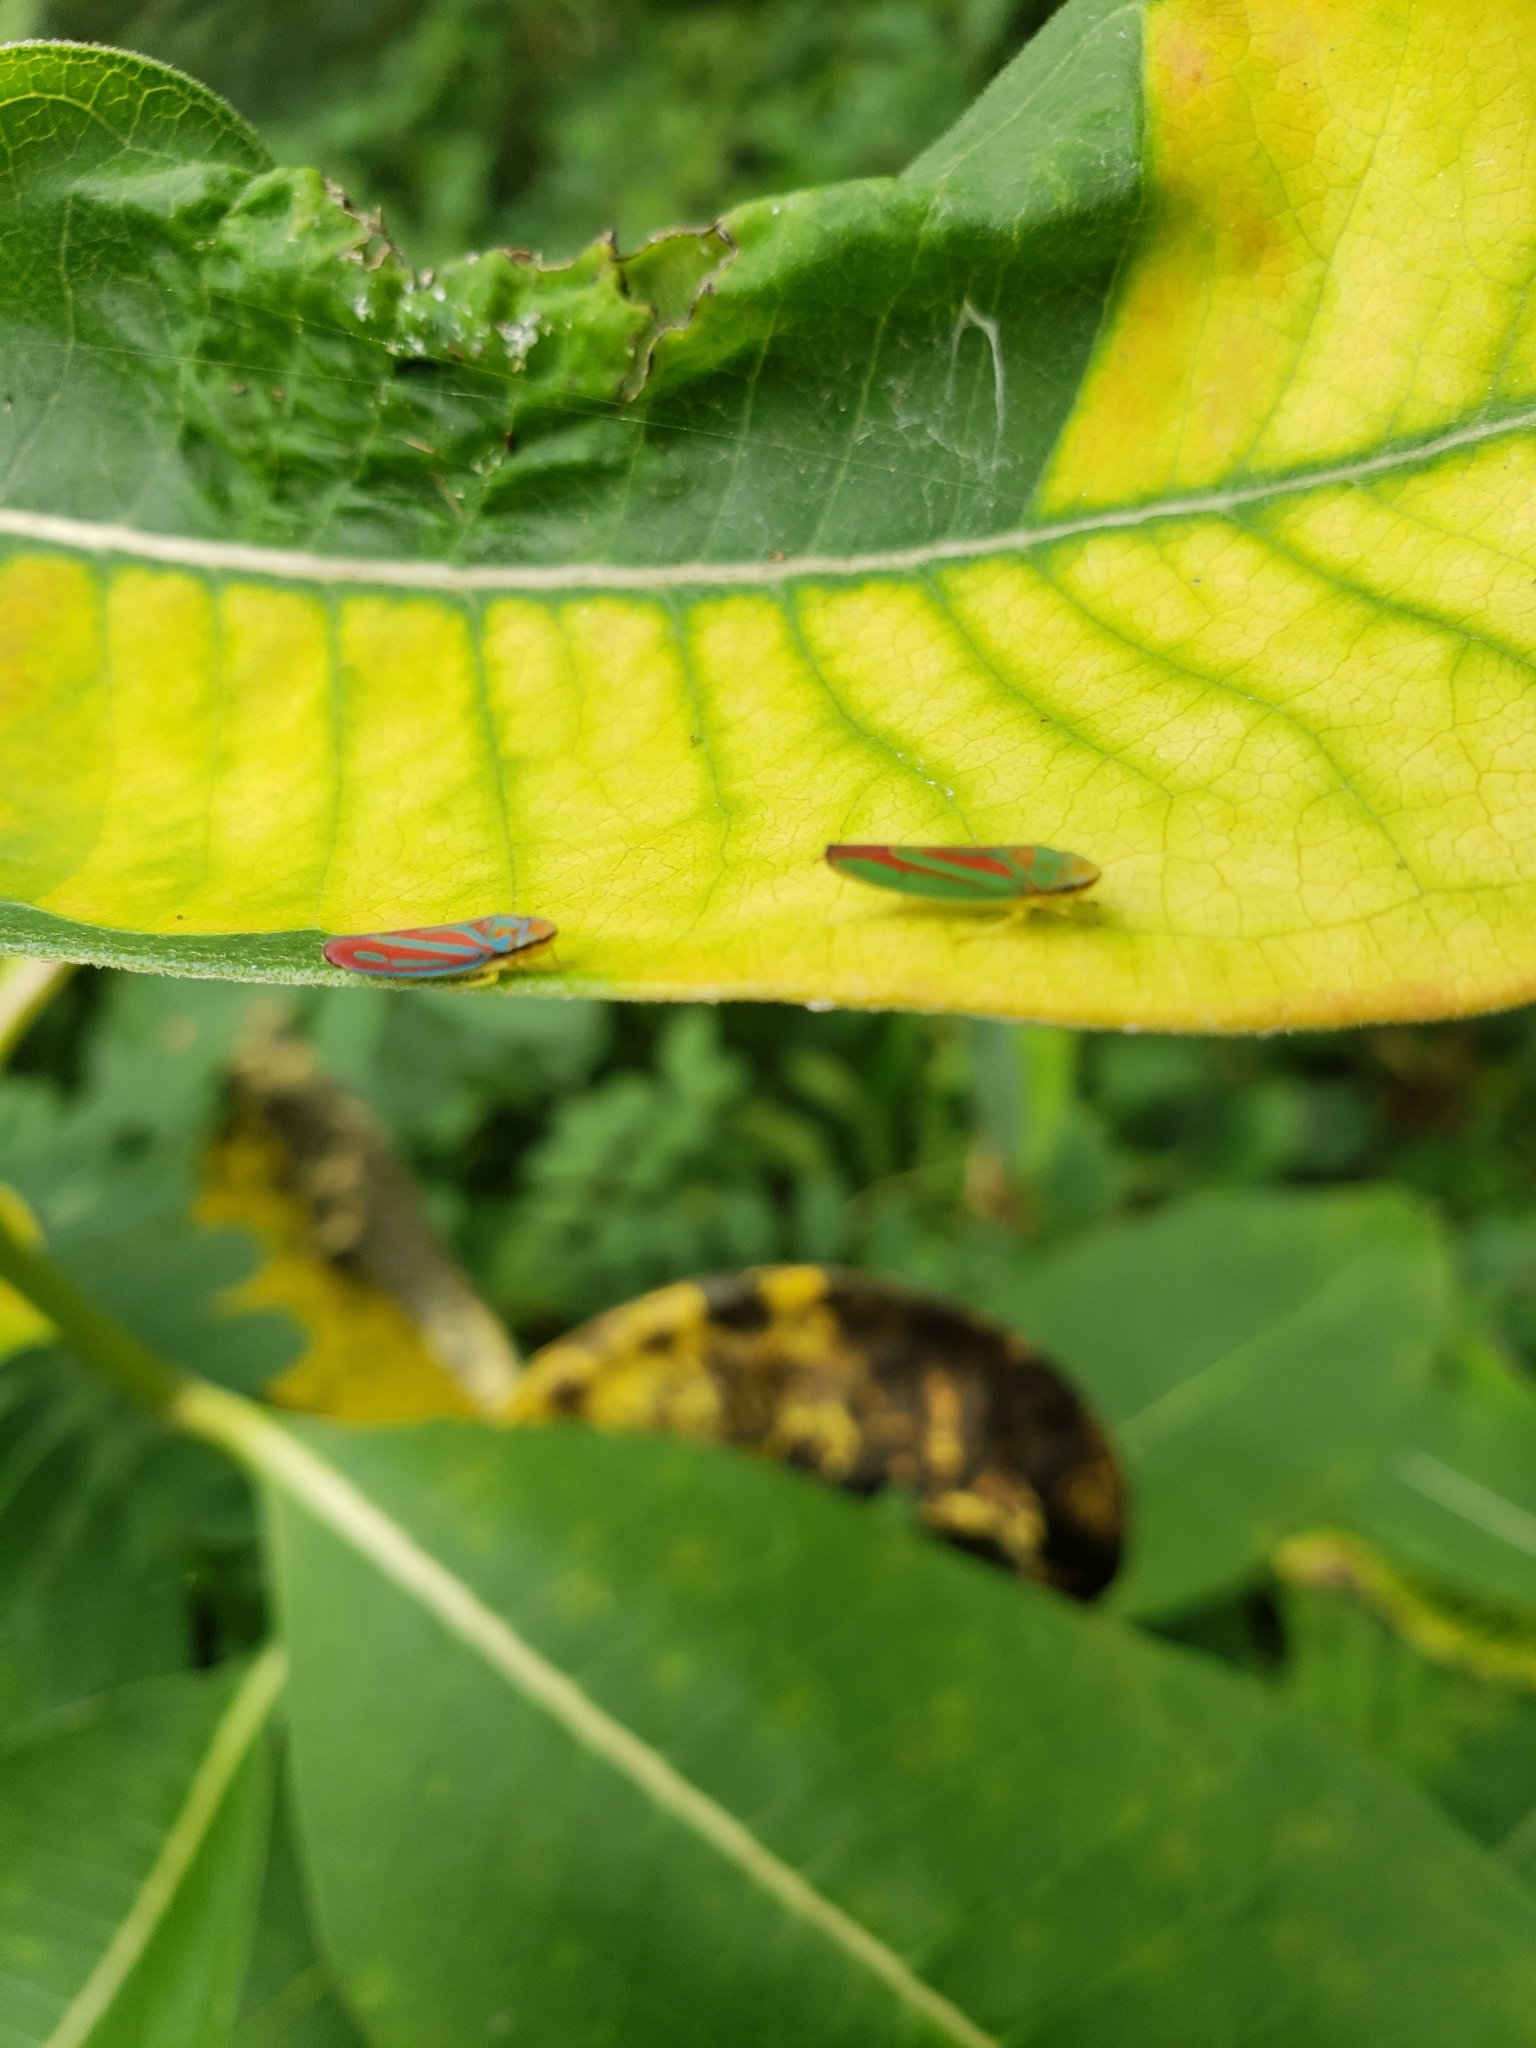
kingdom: Animalia
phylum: Arthropoda
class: Insecta
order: Hemiptera
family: Cicadellidae
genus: Graphocephala
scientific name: Graphocephala coccinea
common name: Candy-striped leafhopper
